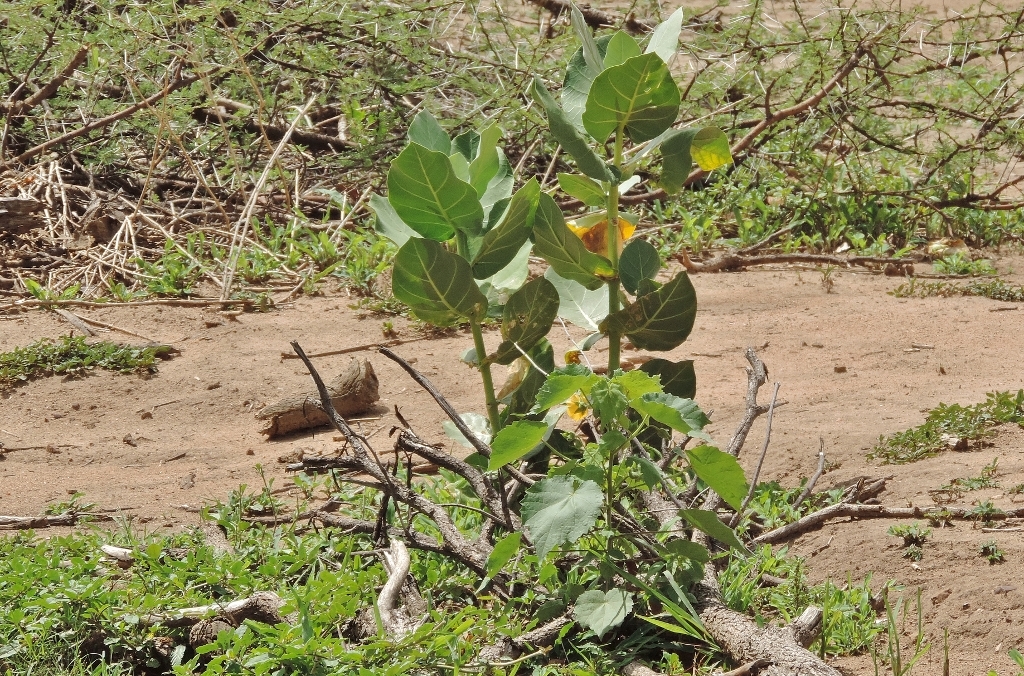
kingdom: Plantae
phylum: Tracheophyta
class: Magnoliopsida
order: Gentianales
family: Apocynaceae
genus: Calotropis
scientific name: Calotropis procera
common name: Roostertree
